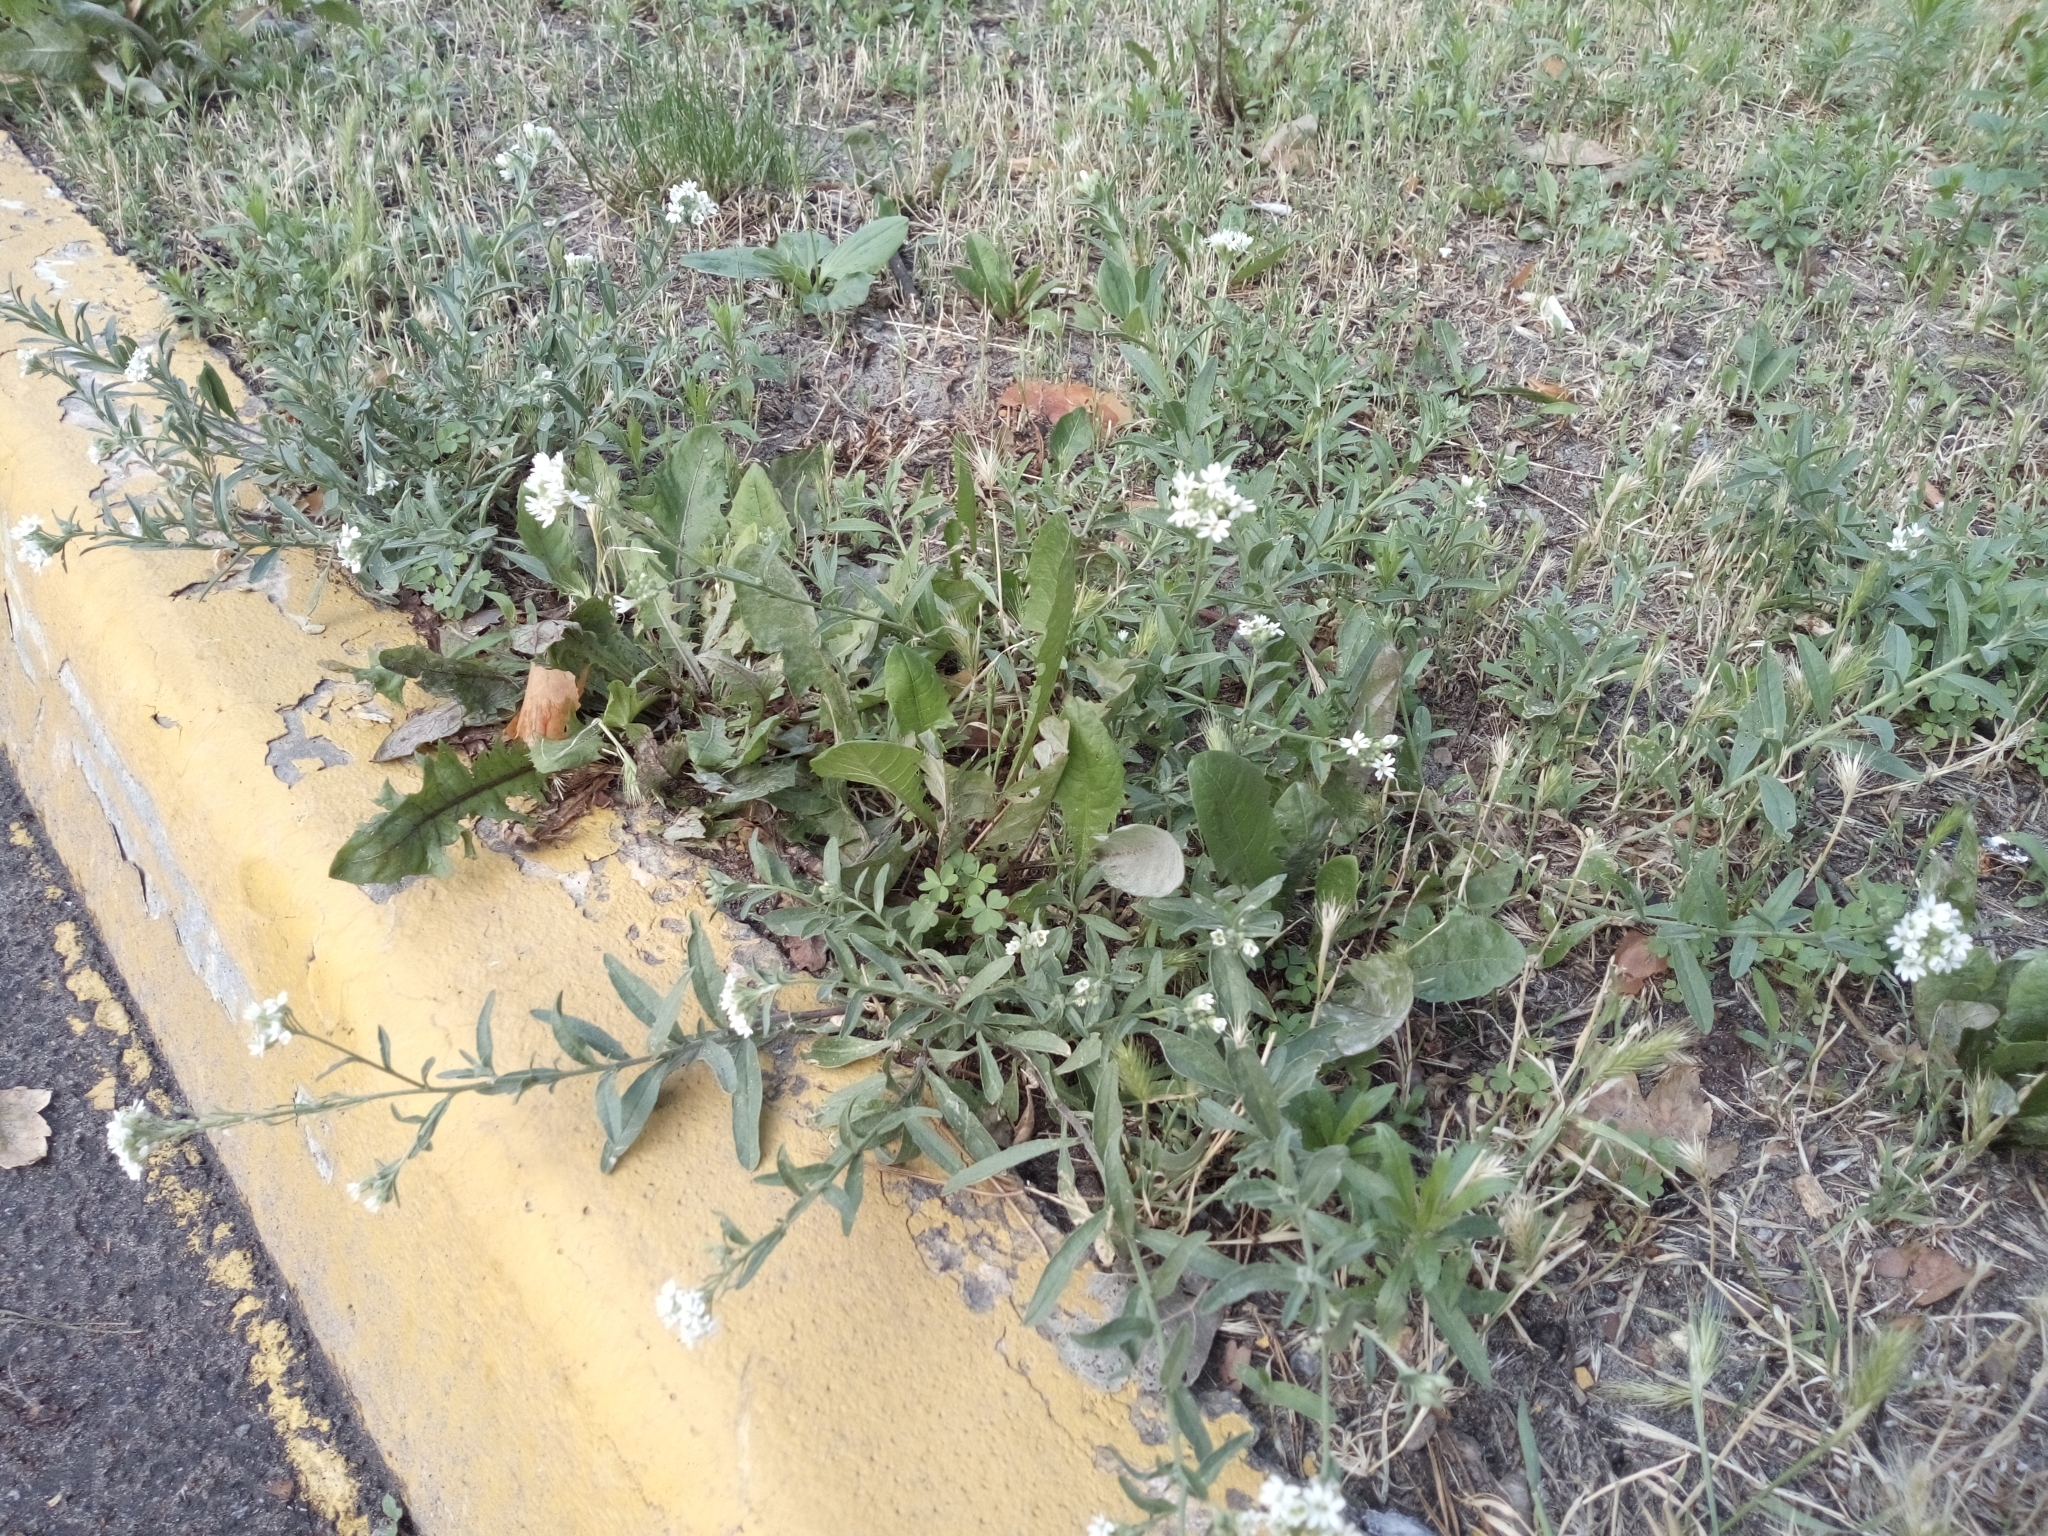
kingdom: Plantae
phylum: Tracheophyta
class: Magnoliopsida
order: Brassicales
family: Brassicaceae
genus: Berteroa
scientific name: Berteroa incana
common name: Hoary alison
